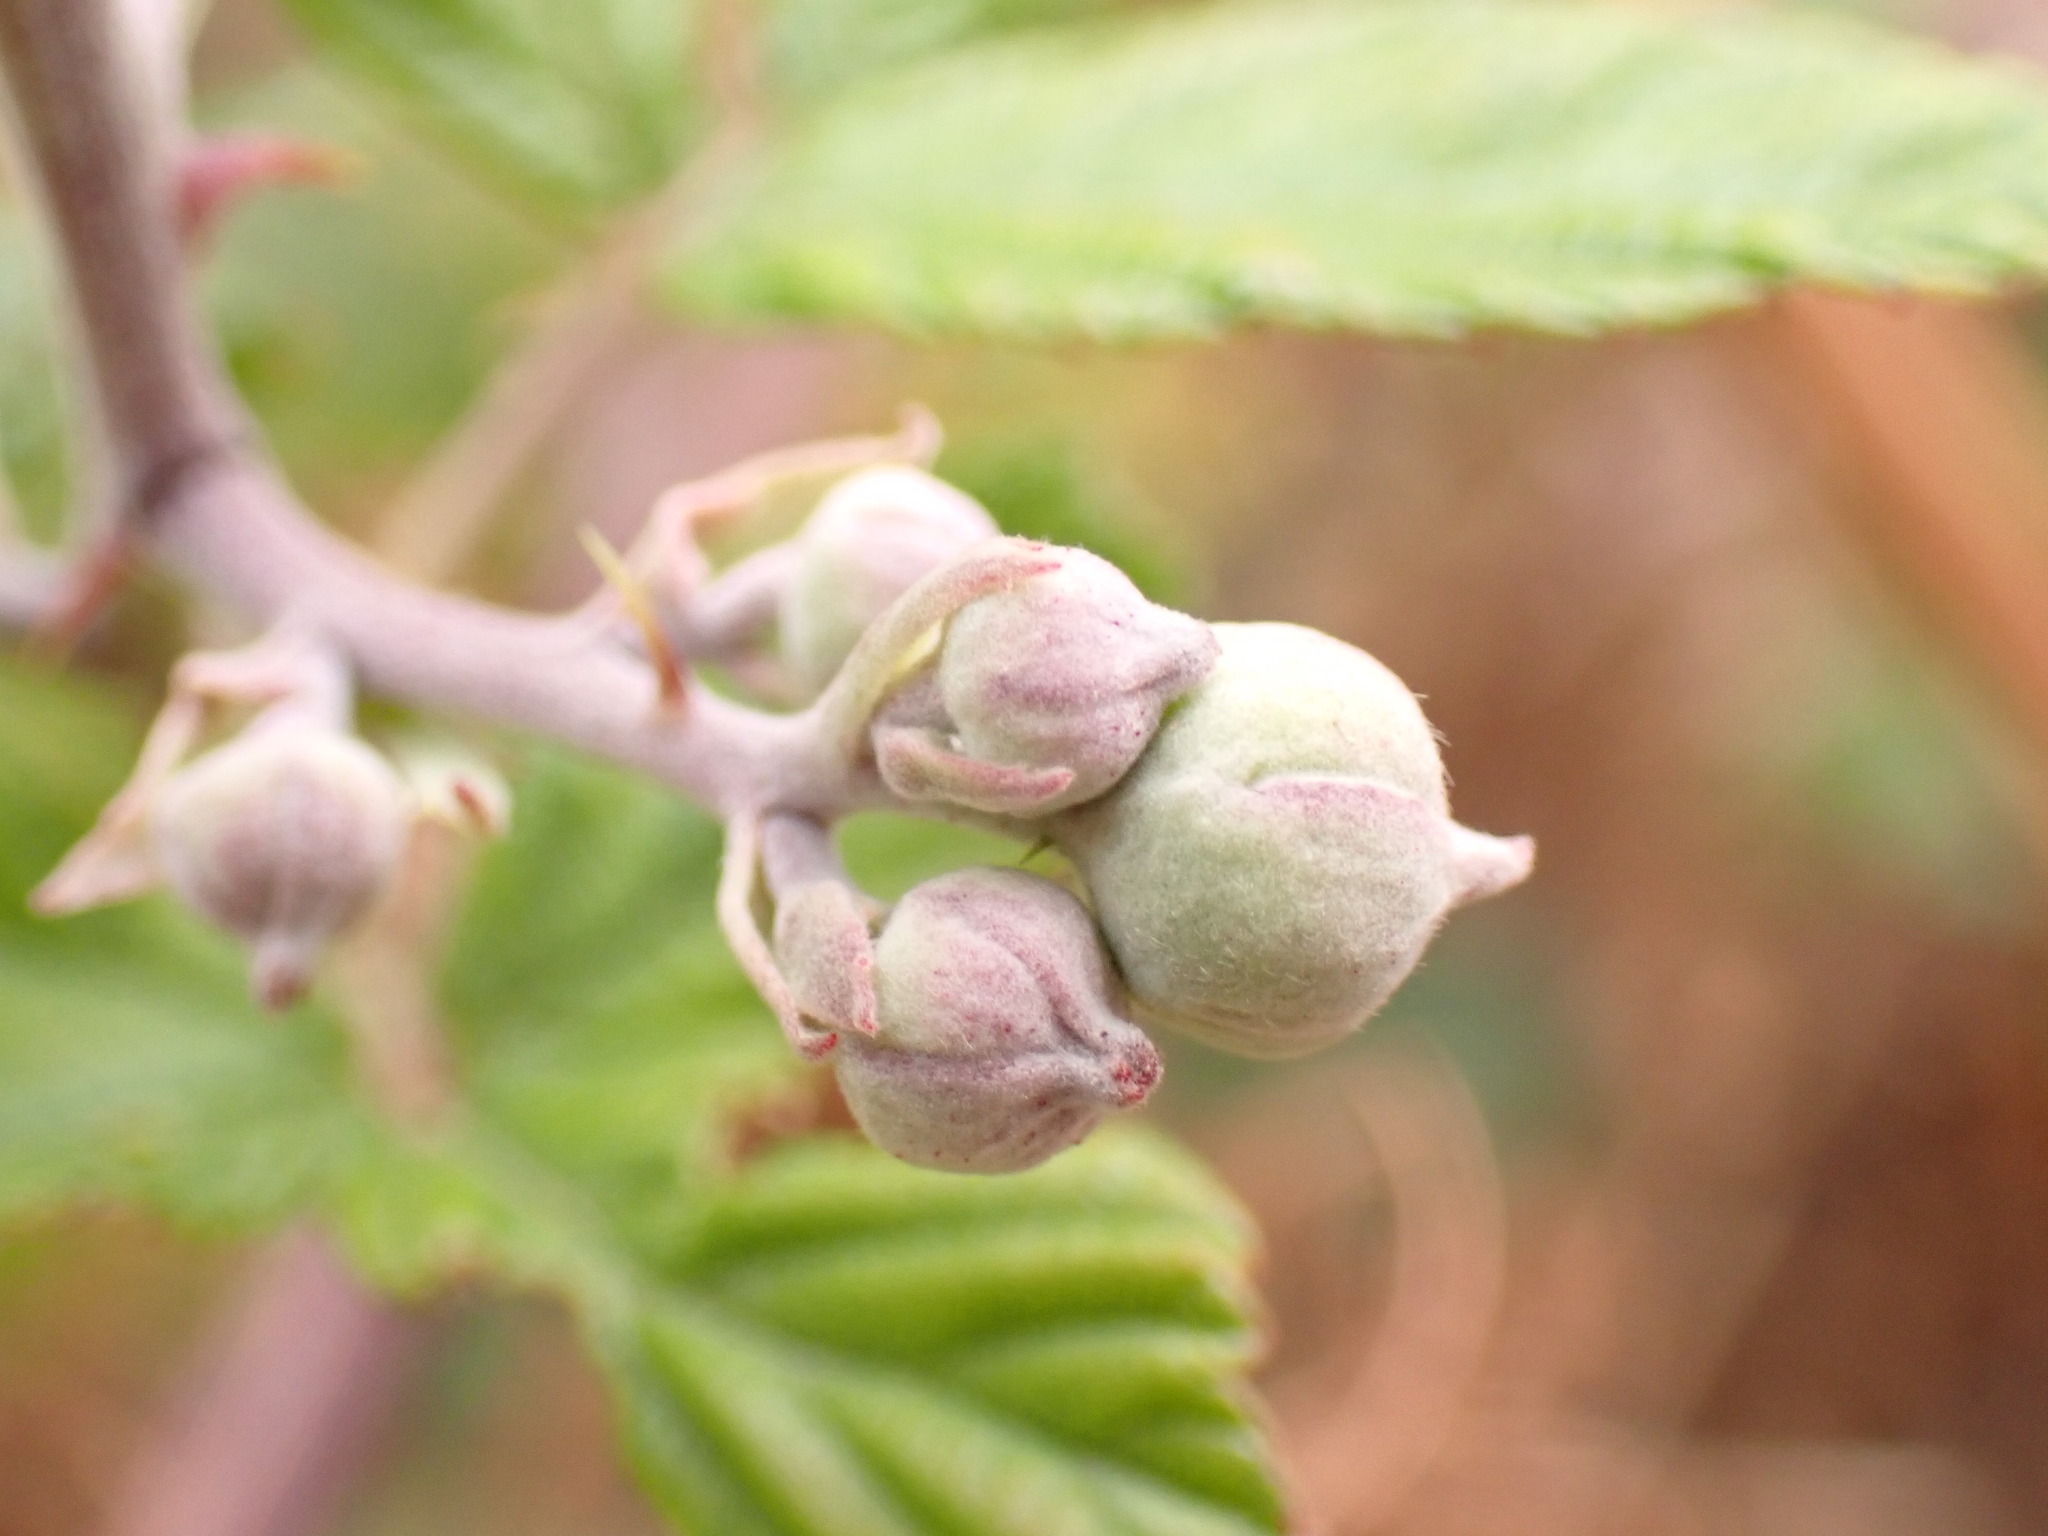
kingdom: Plantae
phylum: Tracheophyta
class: Magnoliopsida
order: Rosales
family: Rosaceae
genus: Rubus
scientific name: Rubus ulmifolius
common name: Elmleaf blackberry
